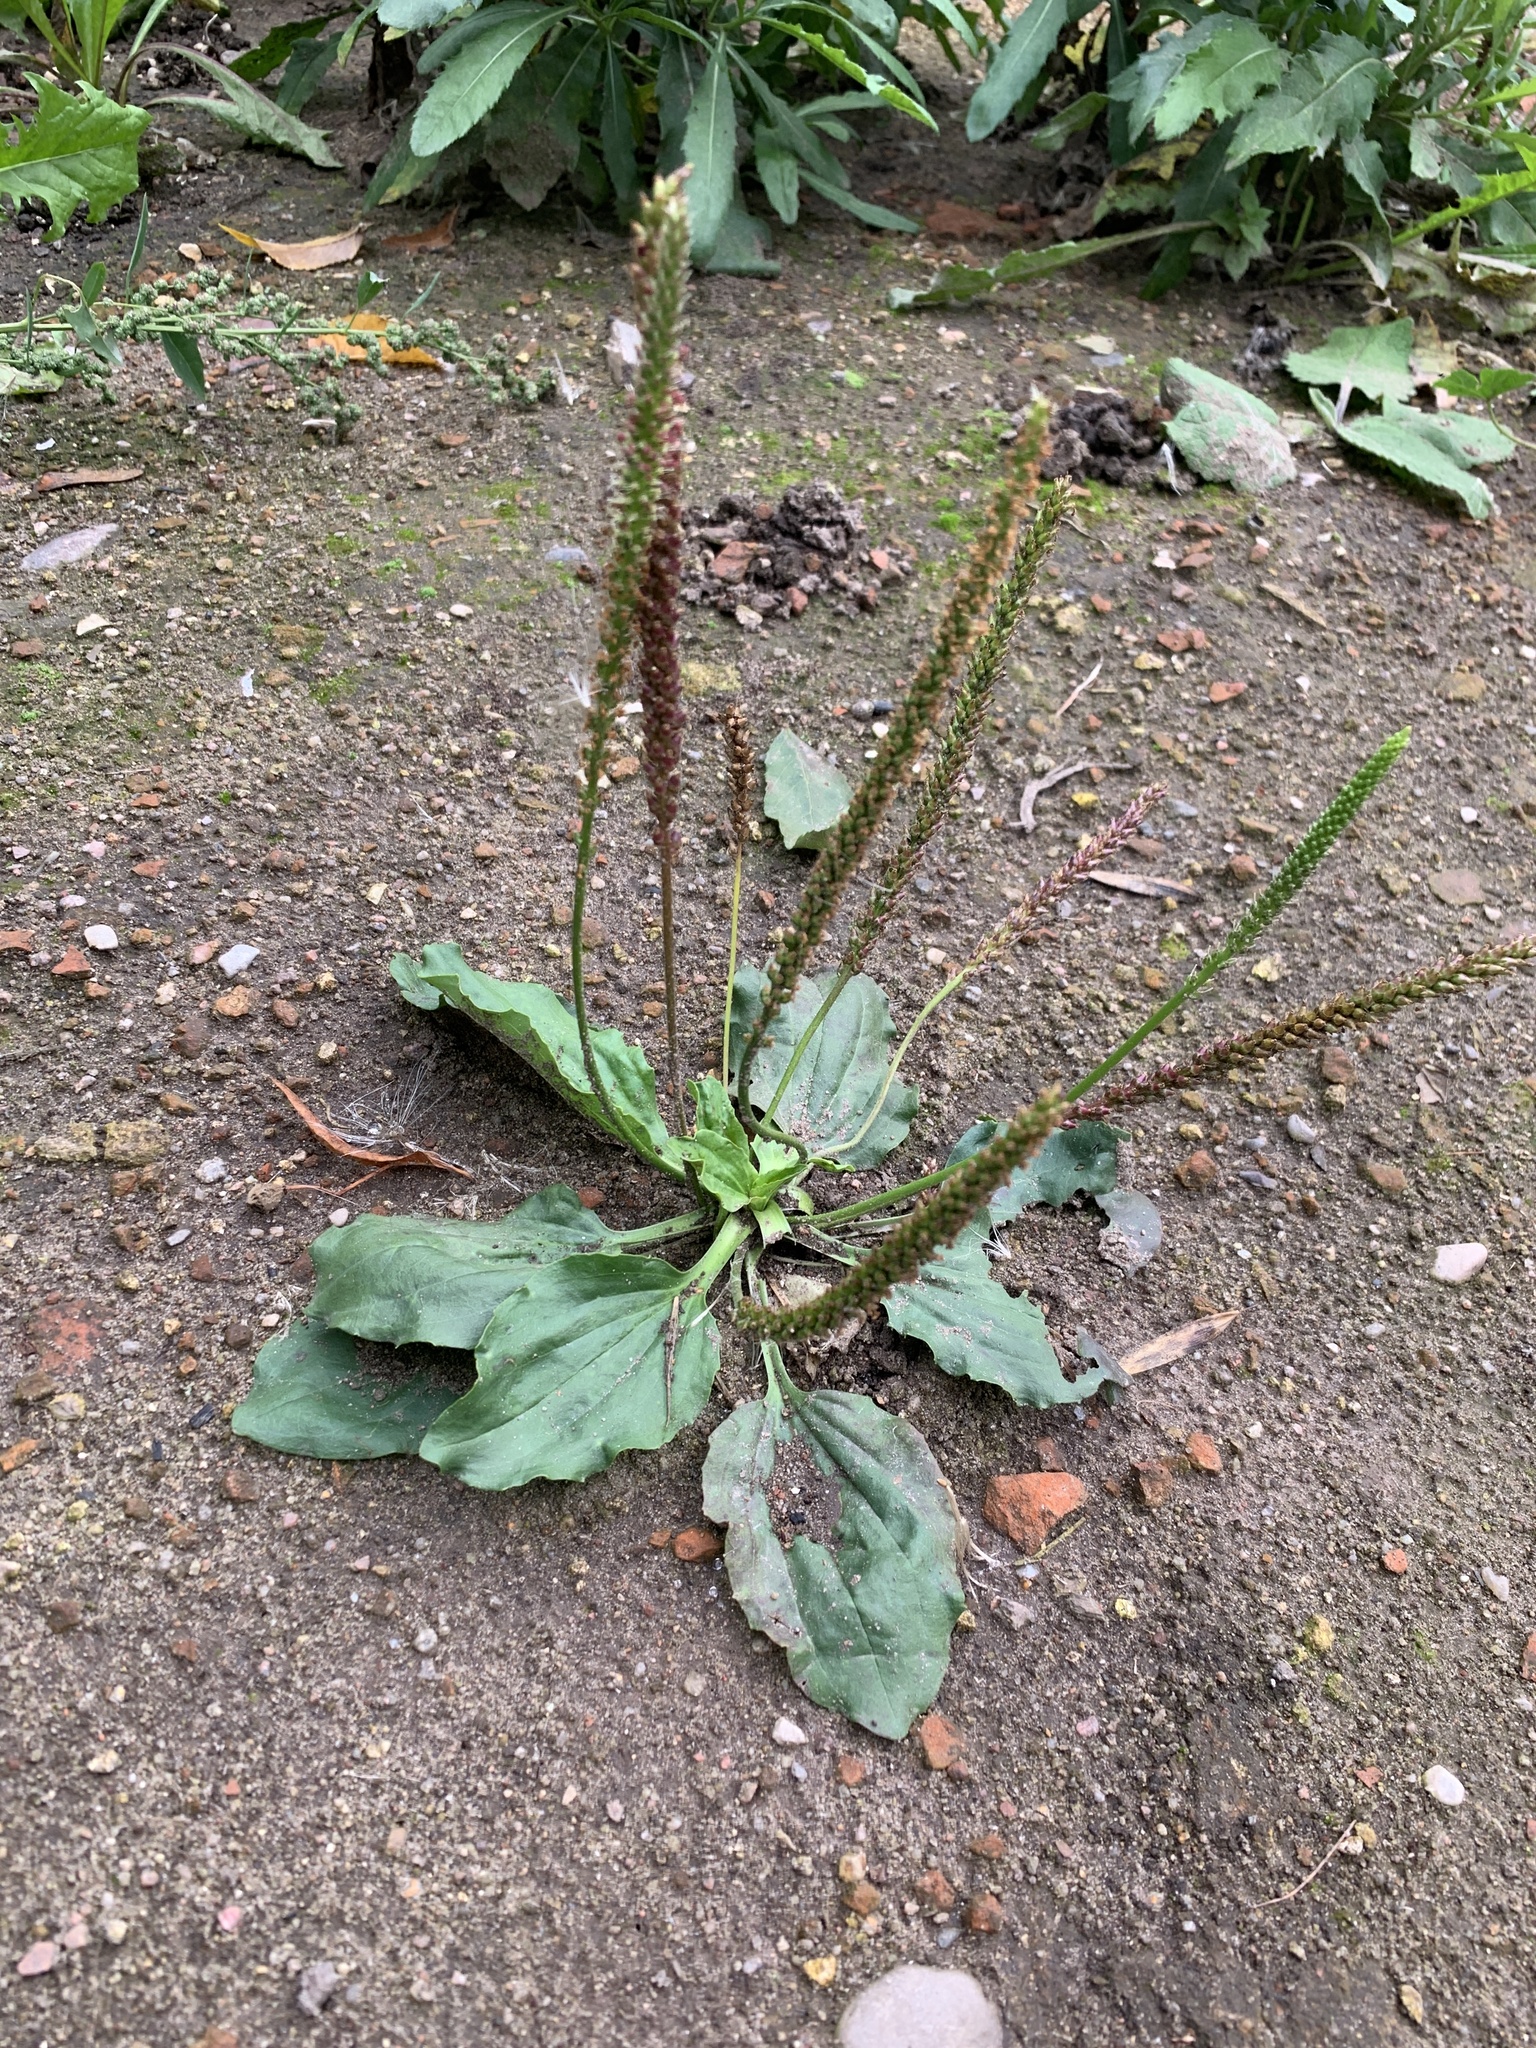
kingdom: Plantae
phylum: Tracheophyta
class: Magnoliopsida
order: Lamiales
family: Plantaginaceae
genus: Plantago
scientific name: Plantago major
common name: Common plantain
